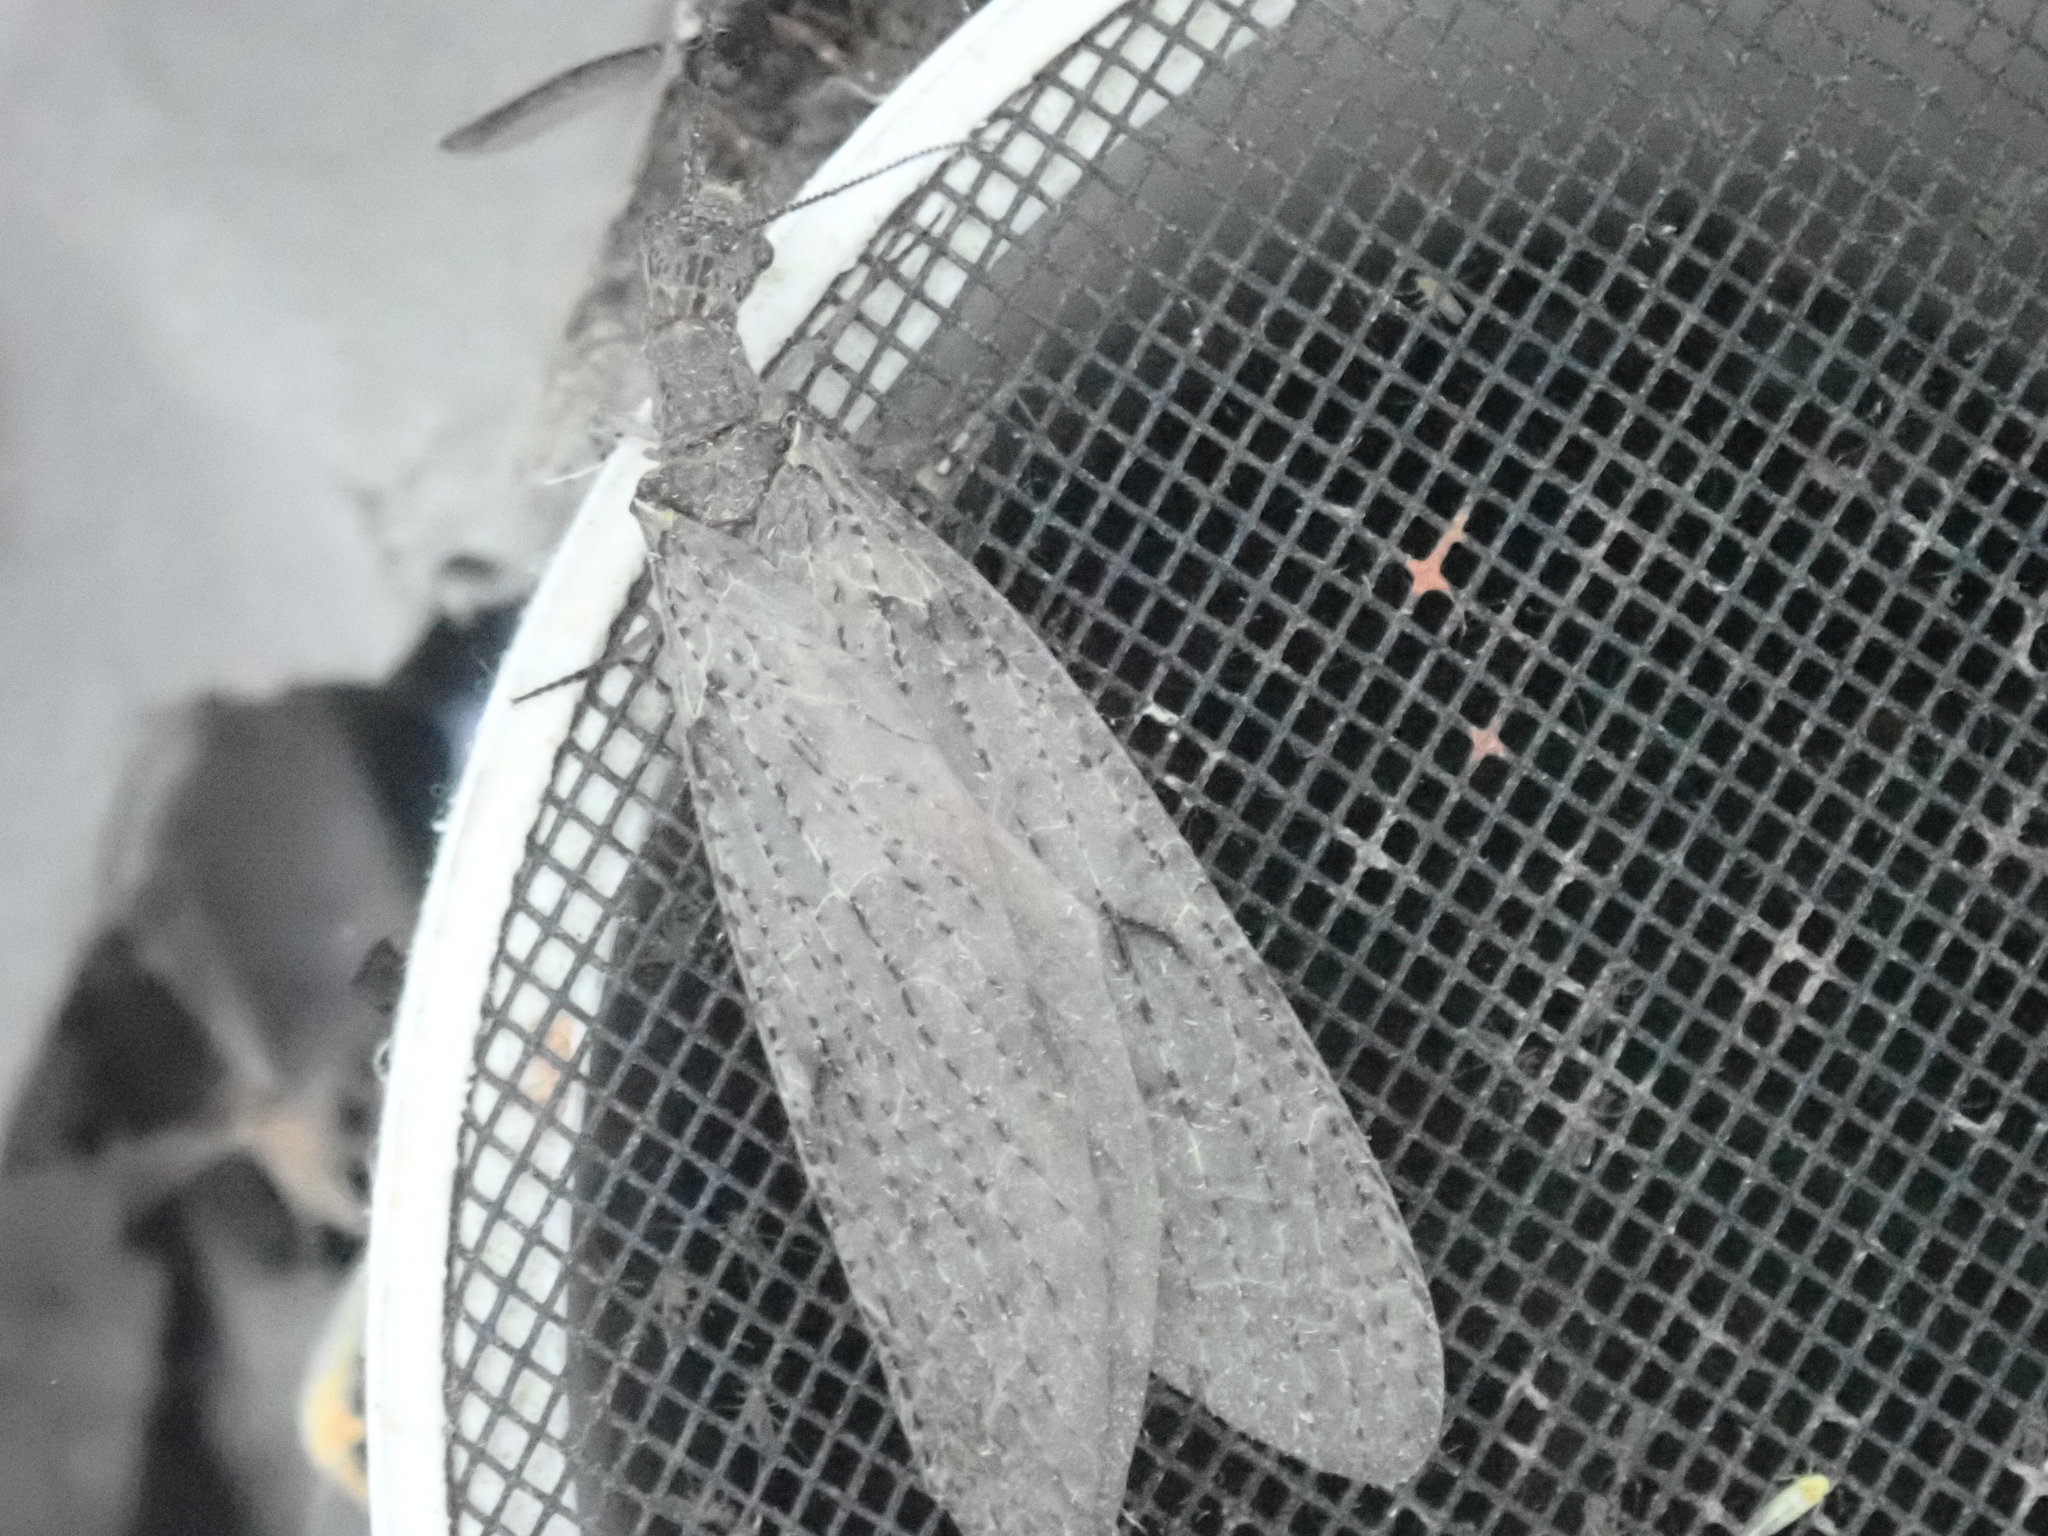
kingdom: Animalia
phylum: Arthropoda
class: Insecta
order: Megaloptera
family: Corydalidae
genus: Chauliodes
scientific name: Chauliodes rastricornis
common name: Spring fishfly
